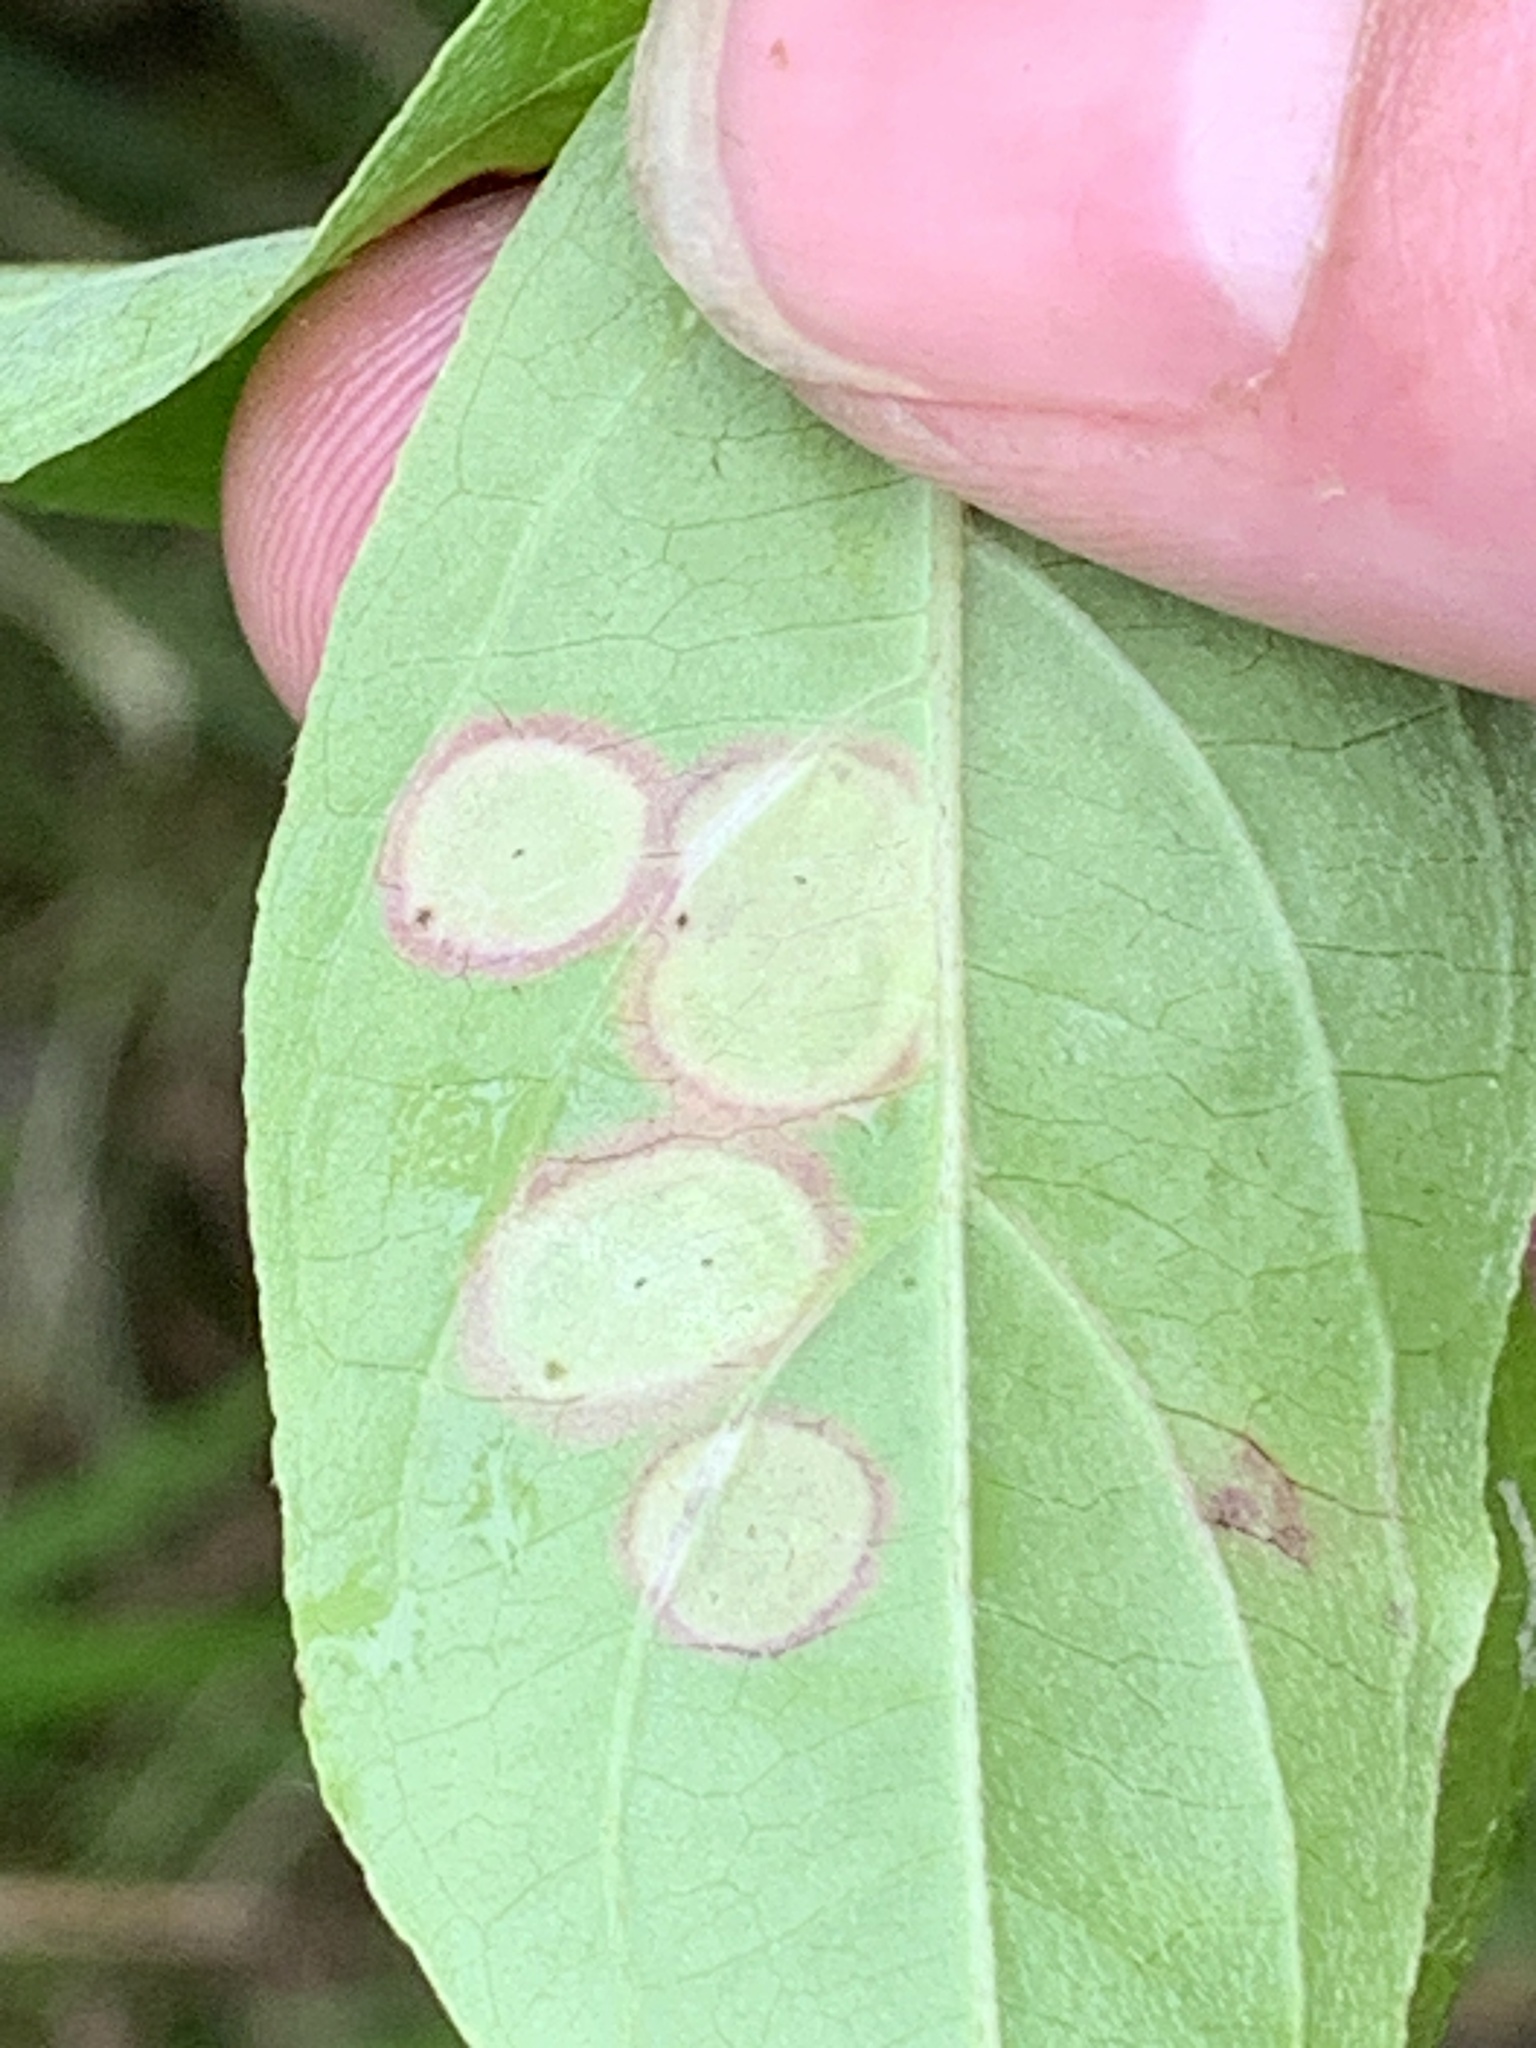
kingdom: Animalia
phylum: Arthropoda
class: Insecta
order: Diptera
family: Cecidomyiidae
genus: Parallelodiplosis
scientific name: Parallelodiplosis subtruncata
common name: Dogwood eyespot gall midge
